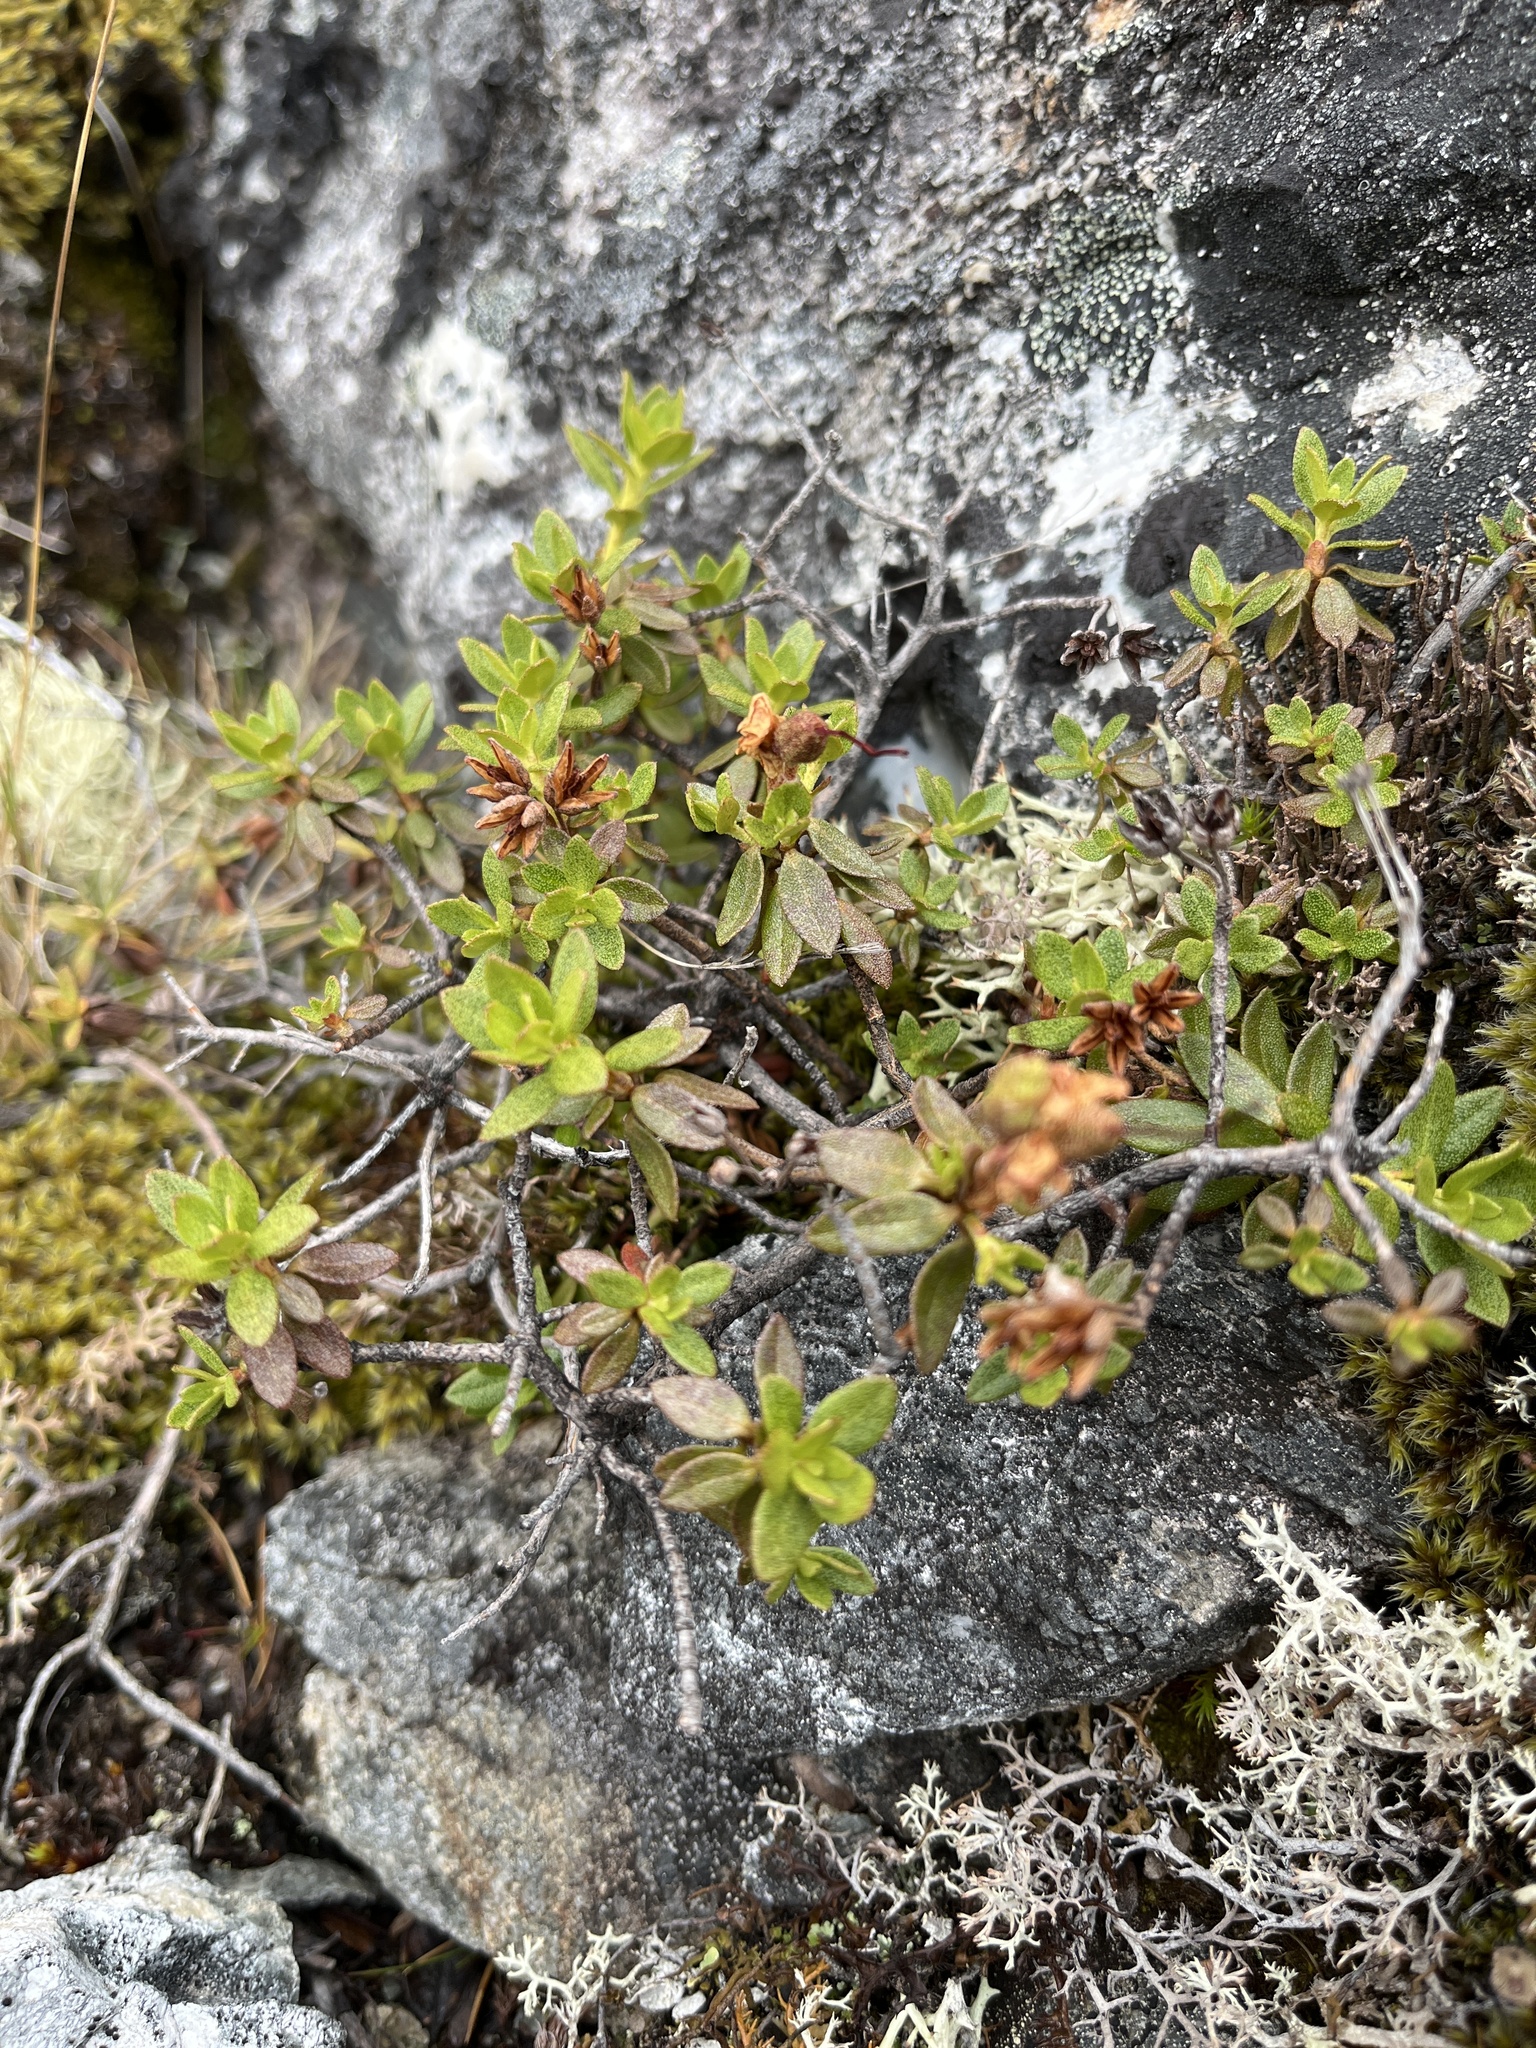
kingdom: Plantae
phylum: Tracheophyta
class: Magnoliopsida
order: Ericales
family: Ericaceae
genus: Rhododendron
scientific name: Rhododendron lapponicum
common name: Lapland rhododendron
